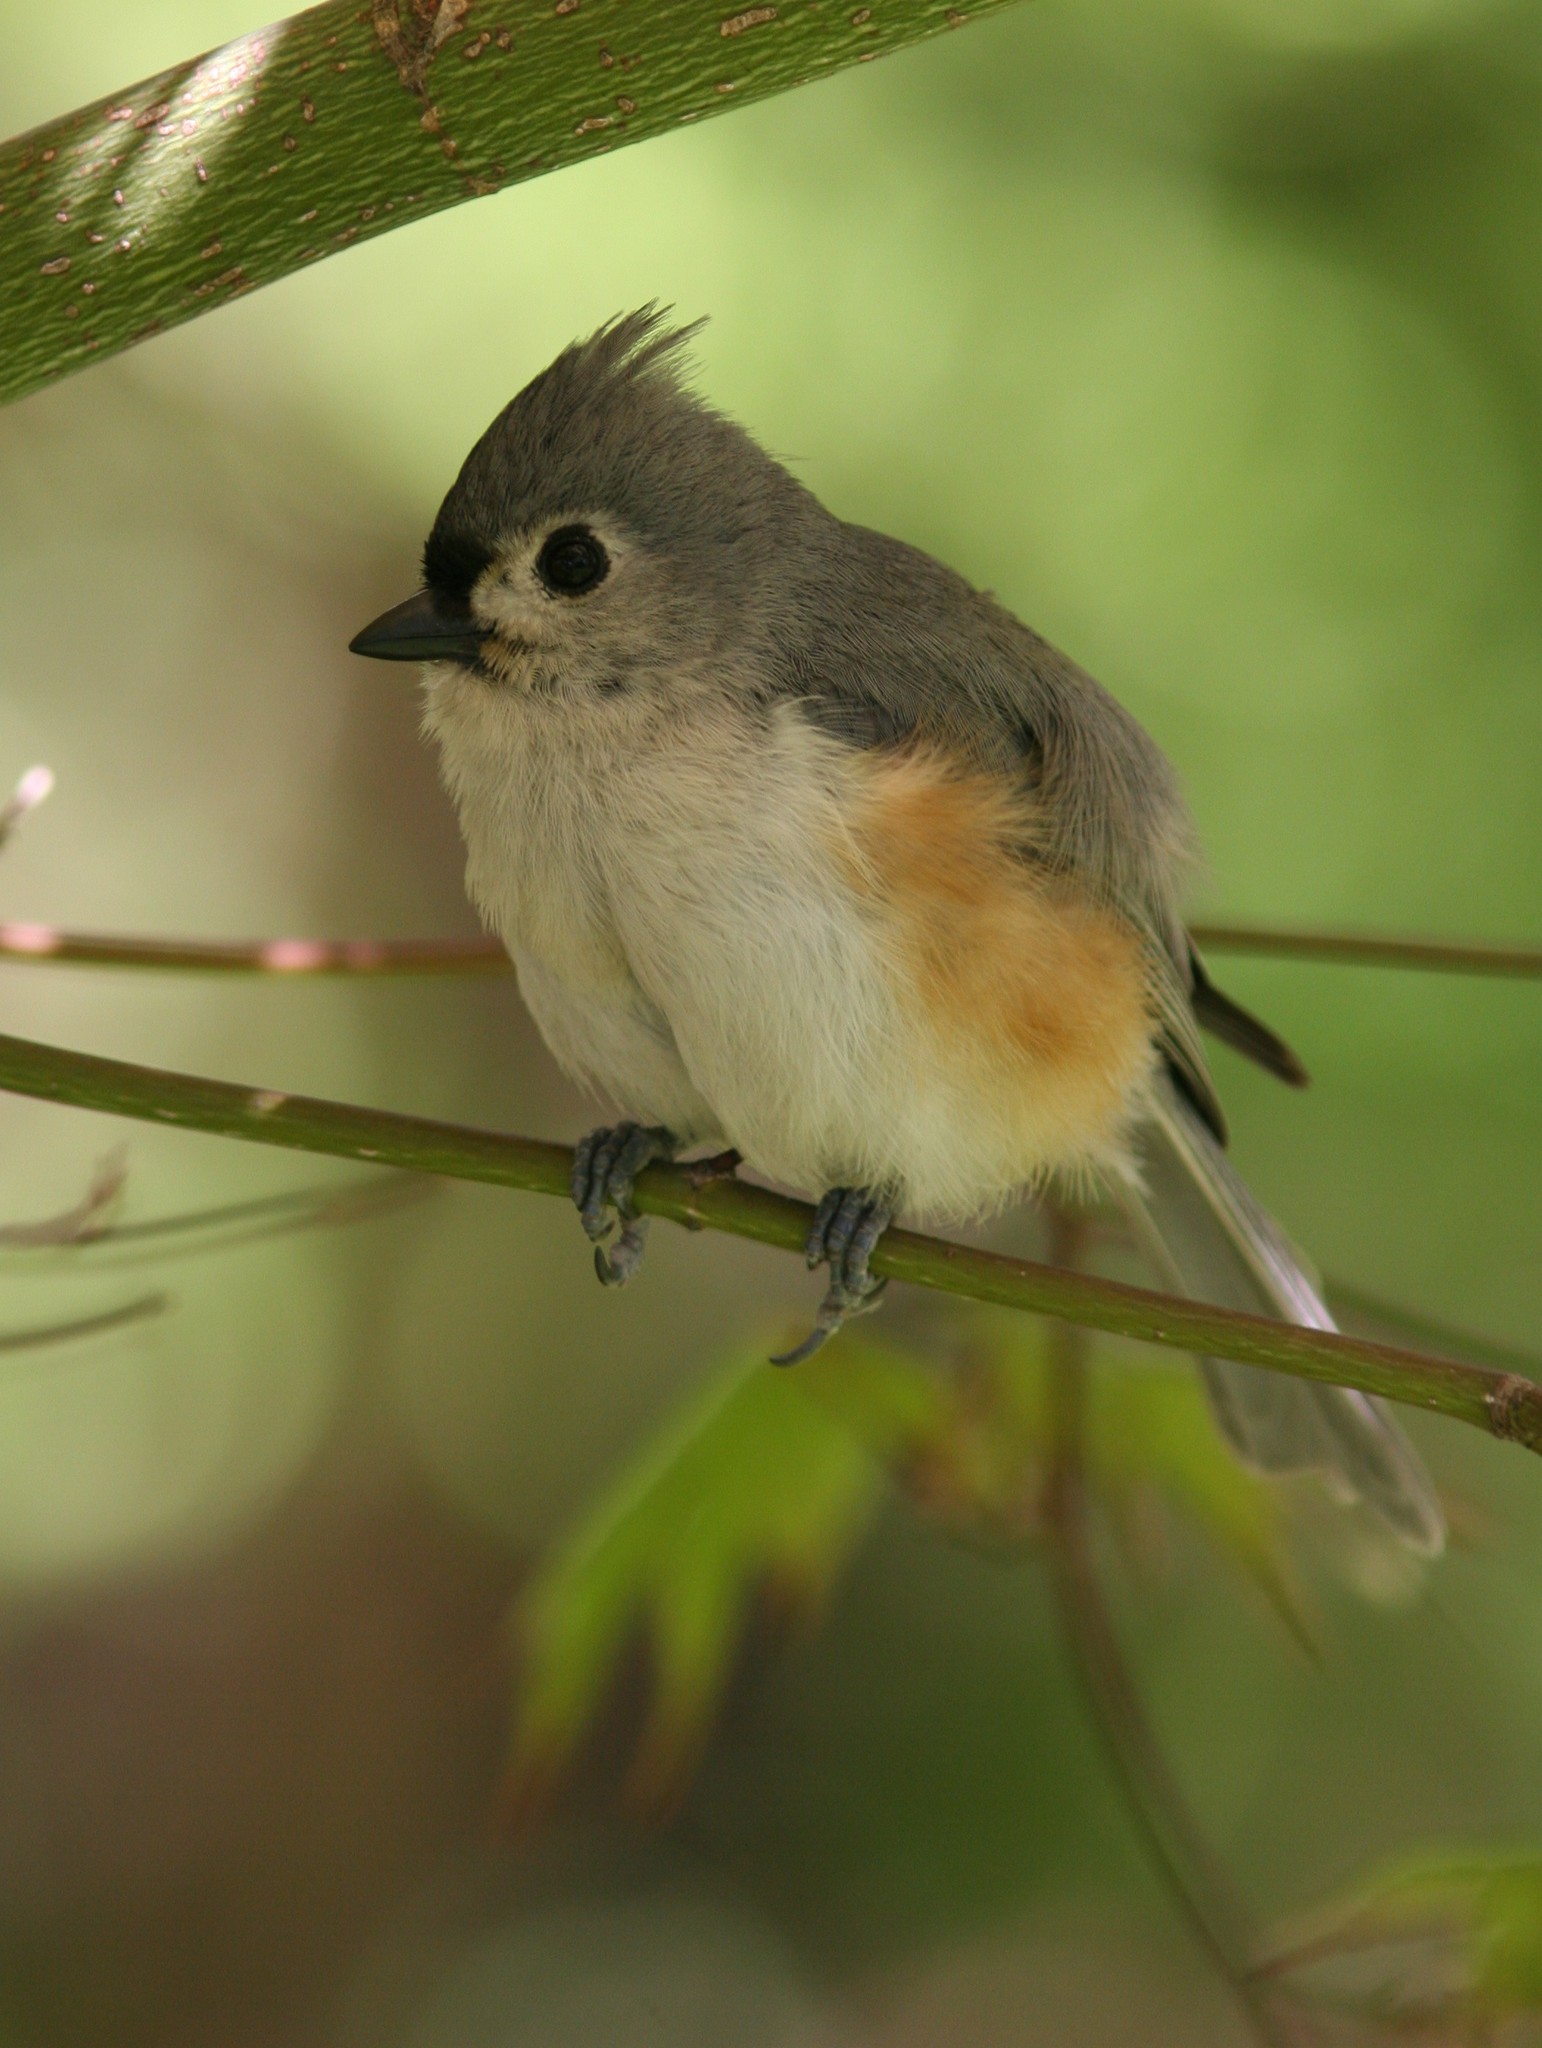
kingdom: Animalia
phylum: Chordata
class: Aves
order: Passeriformes
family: Paridae
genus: Baeolophus
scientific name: Baeolophus bicolor
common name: Tufted titmouse
